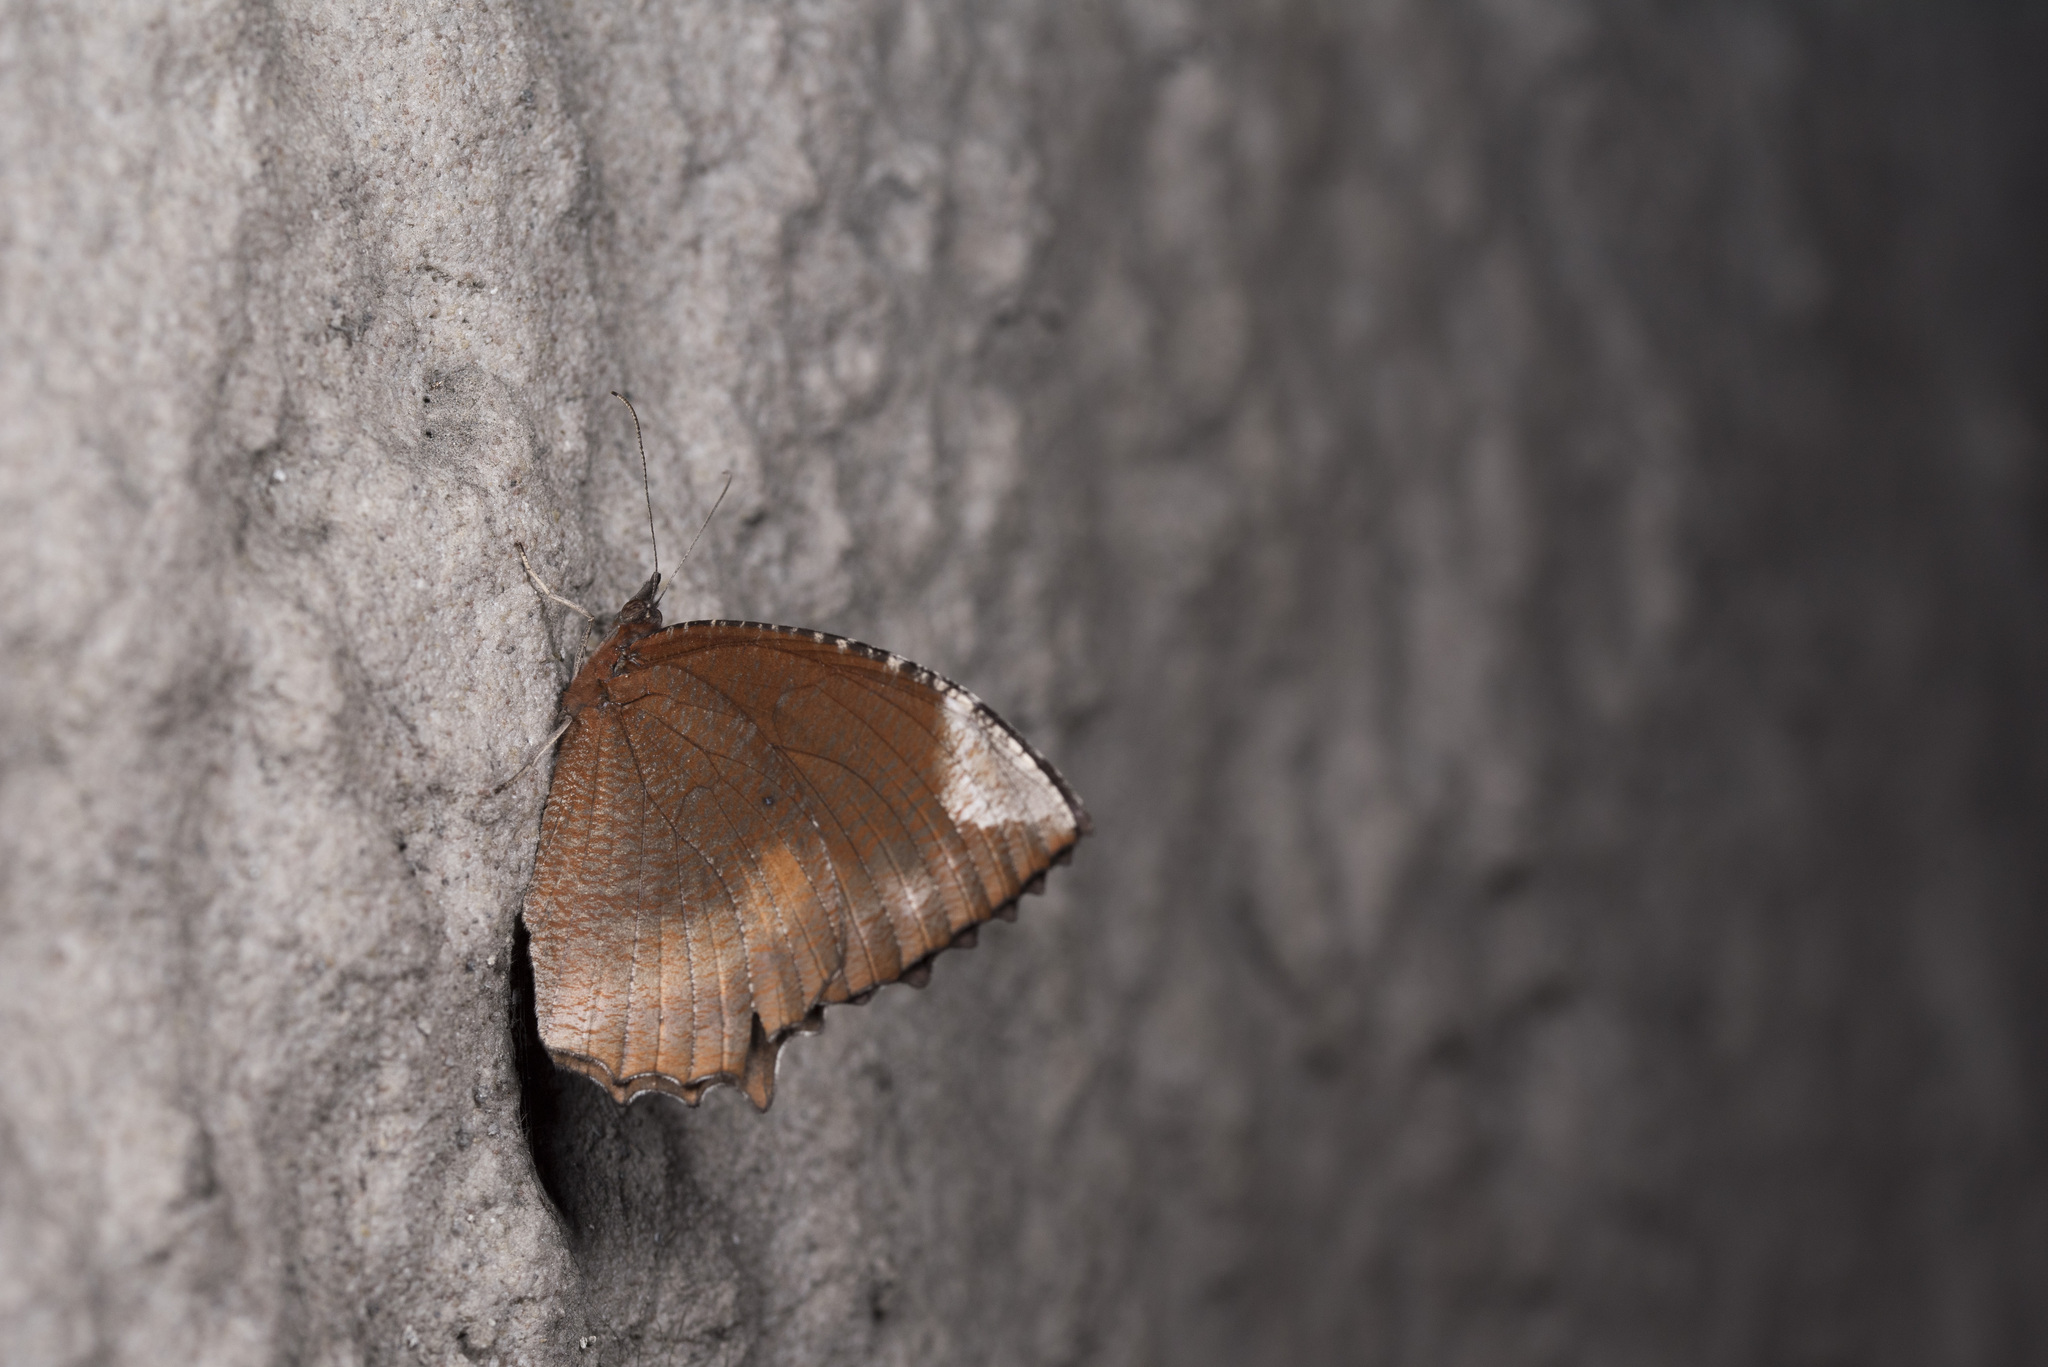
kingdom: Animalia
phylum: Arthropoda
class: Insecta
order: Lepidoptera
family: Nymphalidae
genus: Elymnias
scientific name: Elymnias hypermnestra
